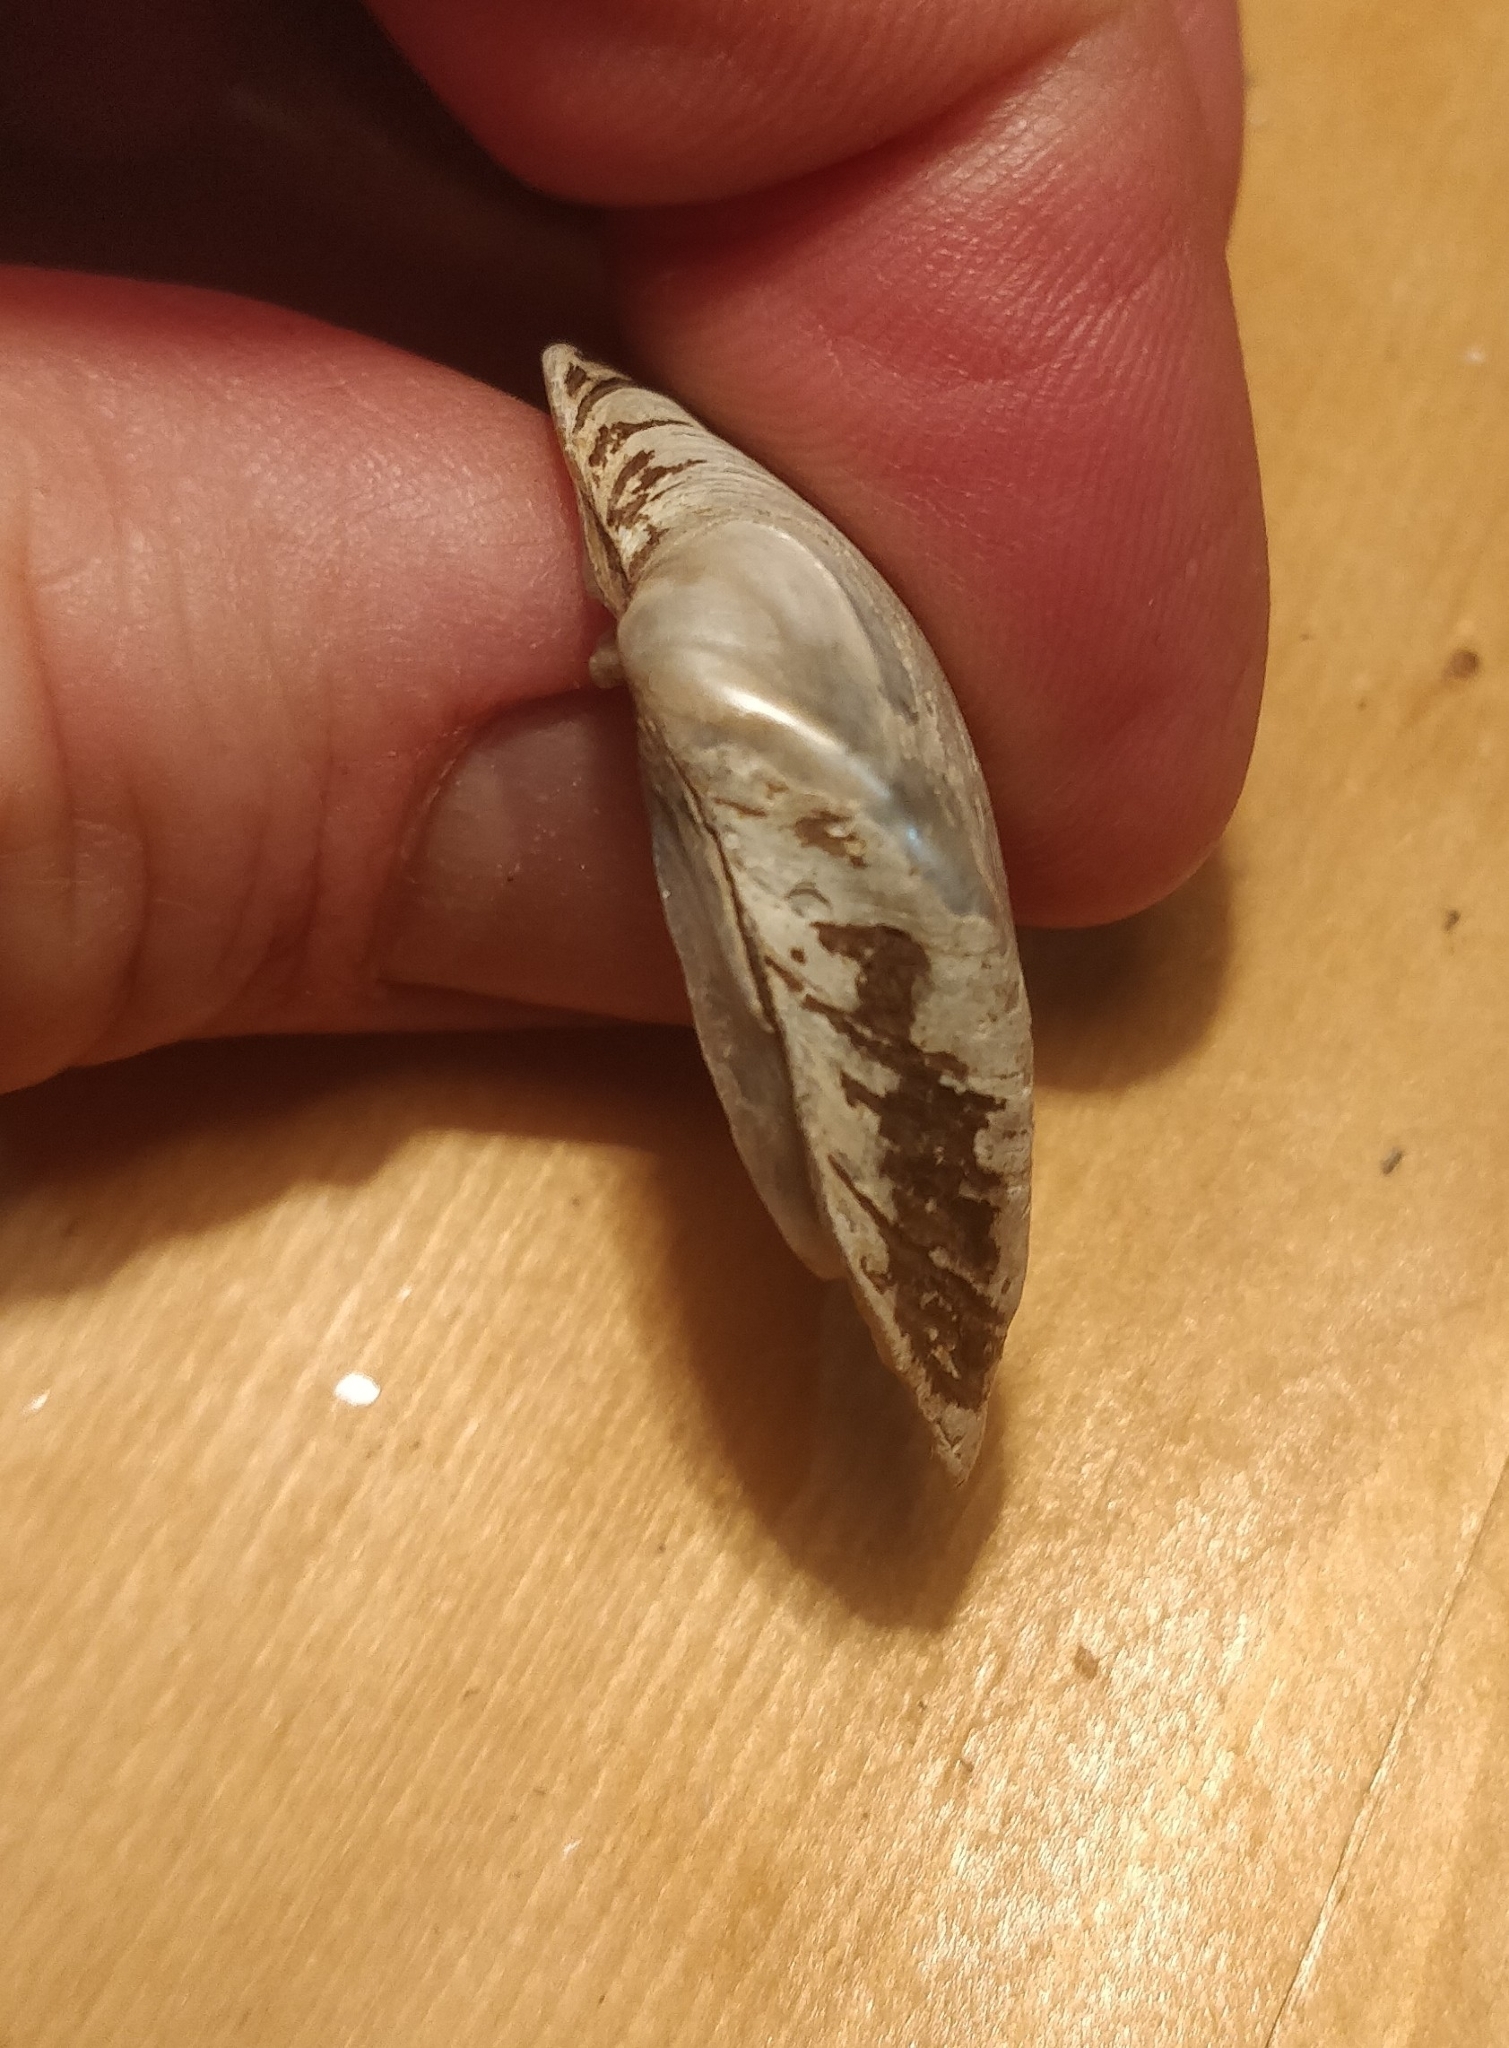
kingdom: Animalia
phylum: Mollusca
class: Bivalvia
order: Unionida
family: Unionidae
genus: Truncilla
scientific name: Truncilla truncata
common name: Deertoe
